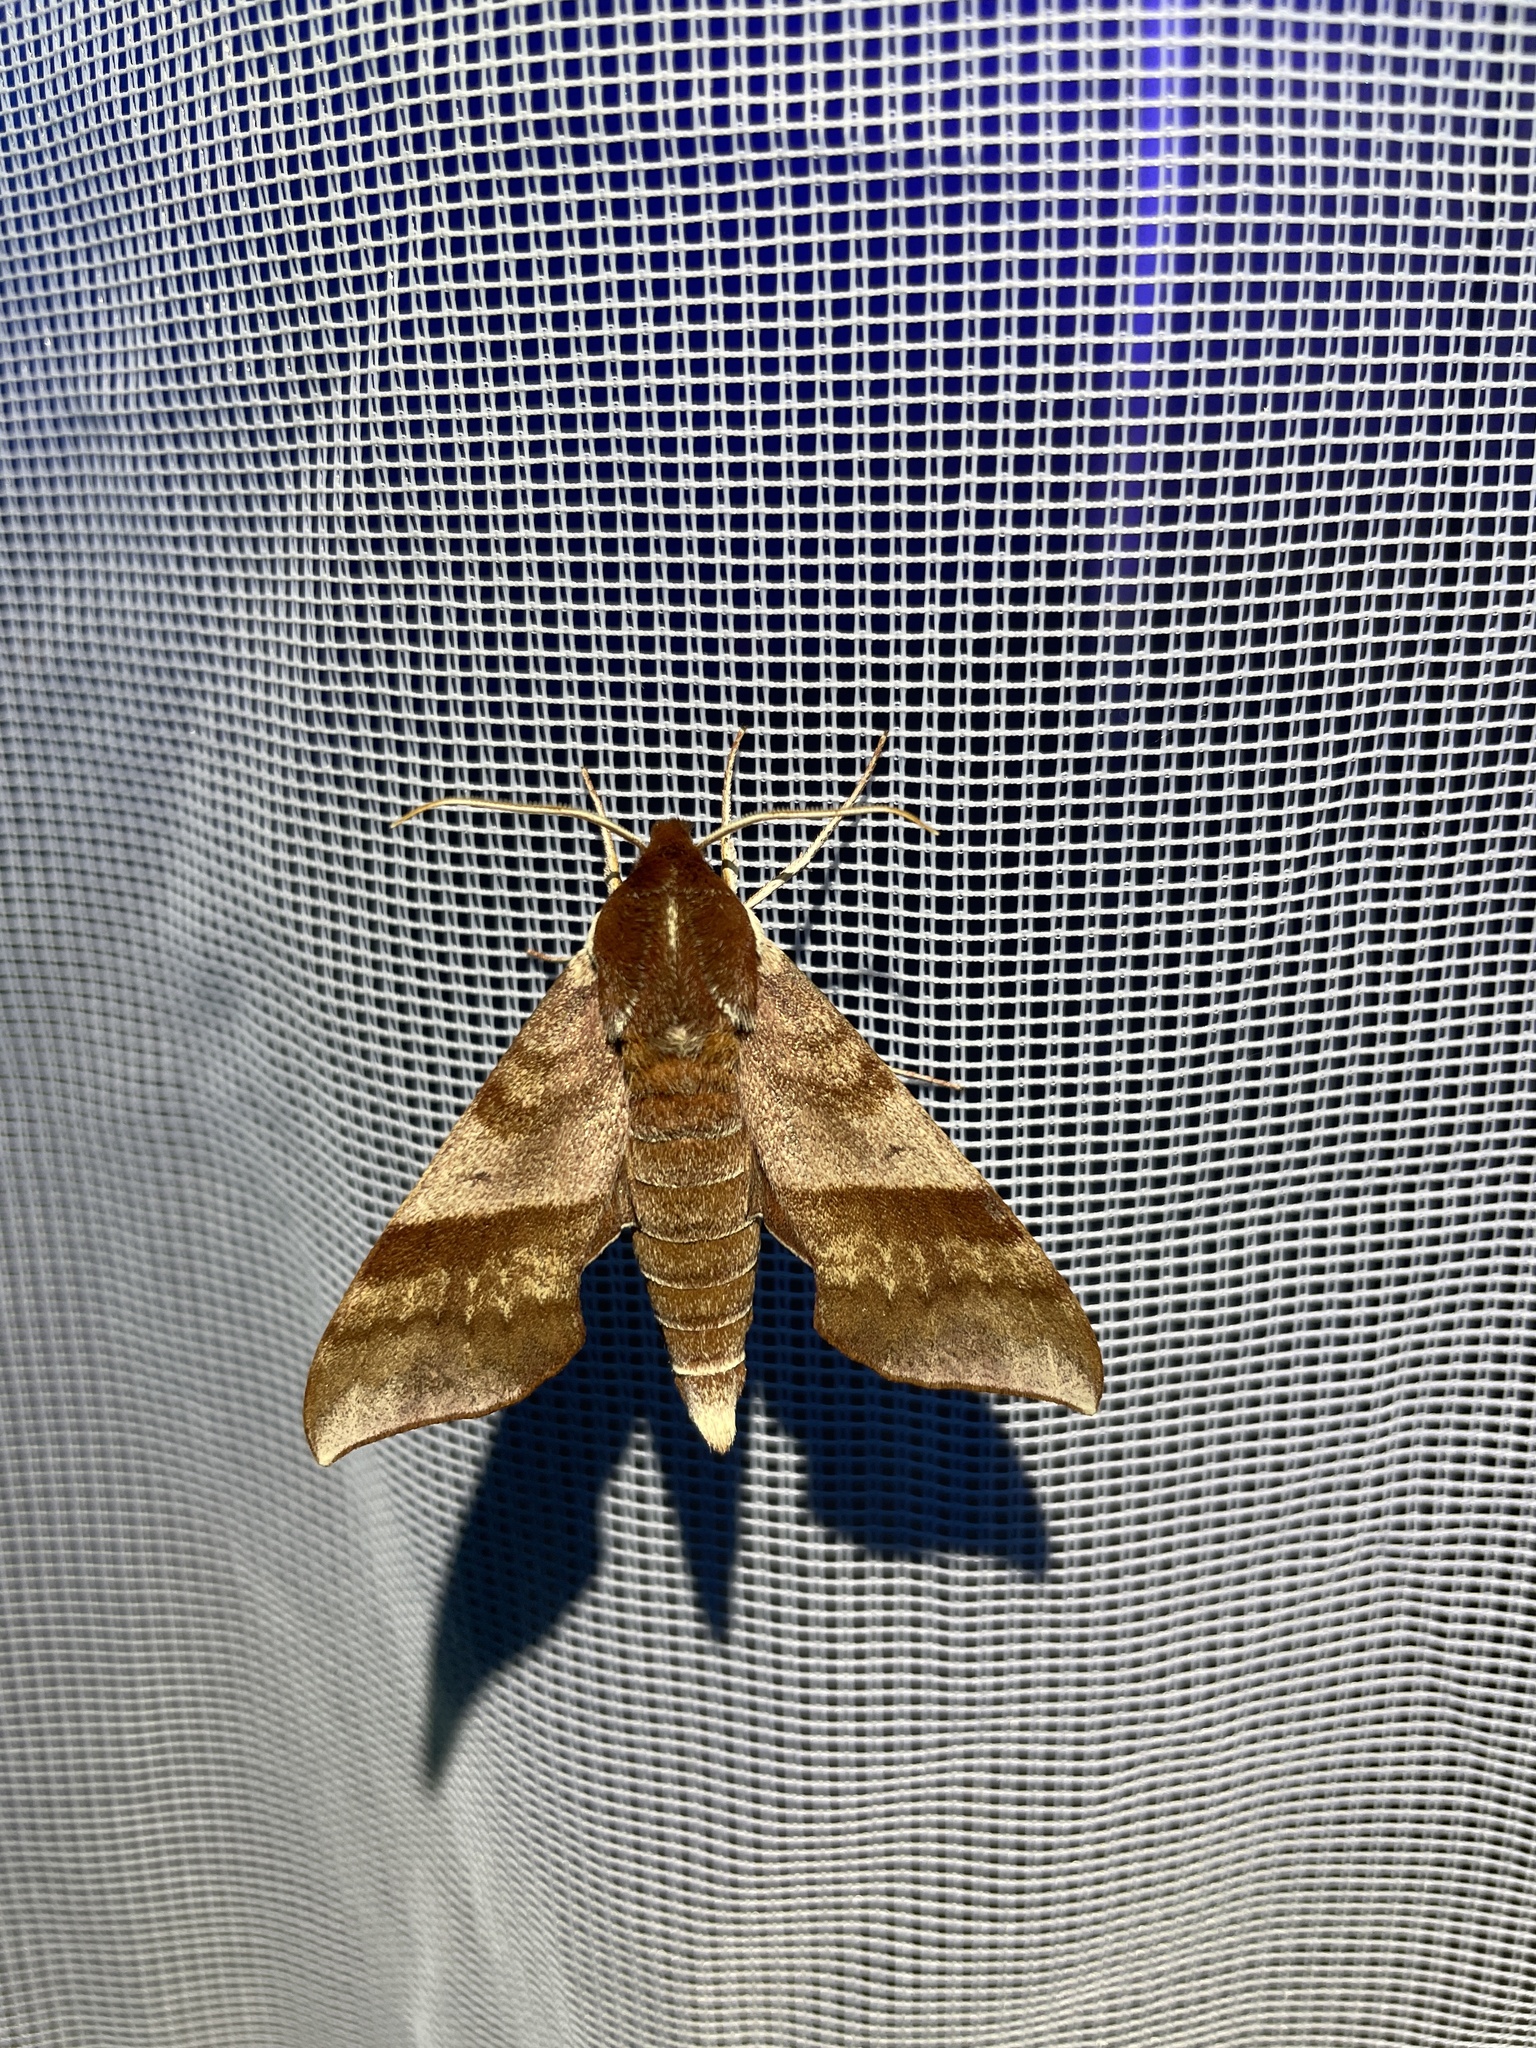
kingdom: Animalia
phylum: Arthropoda
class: Insecta
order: Lepidoptera
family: Sphingidae
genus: Darapsa
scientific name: Darapsa choerilus
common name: Azalea sphinx
